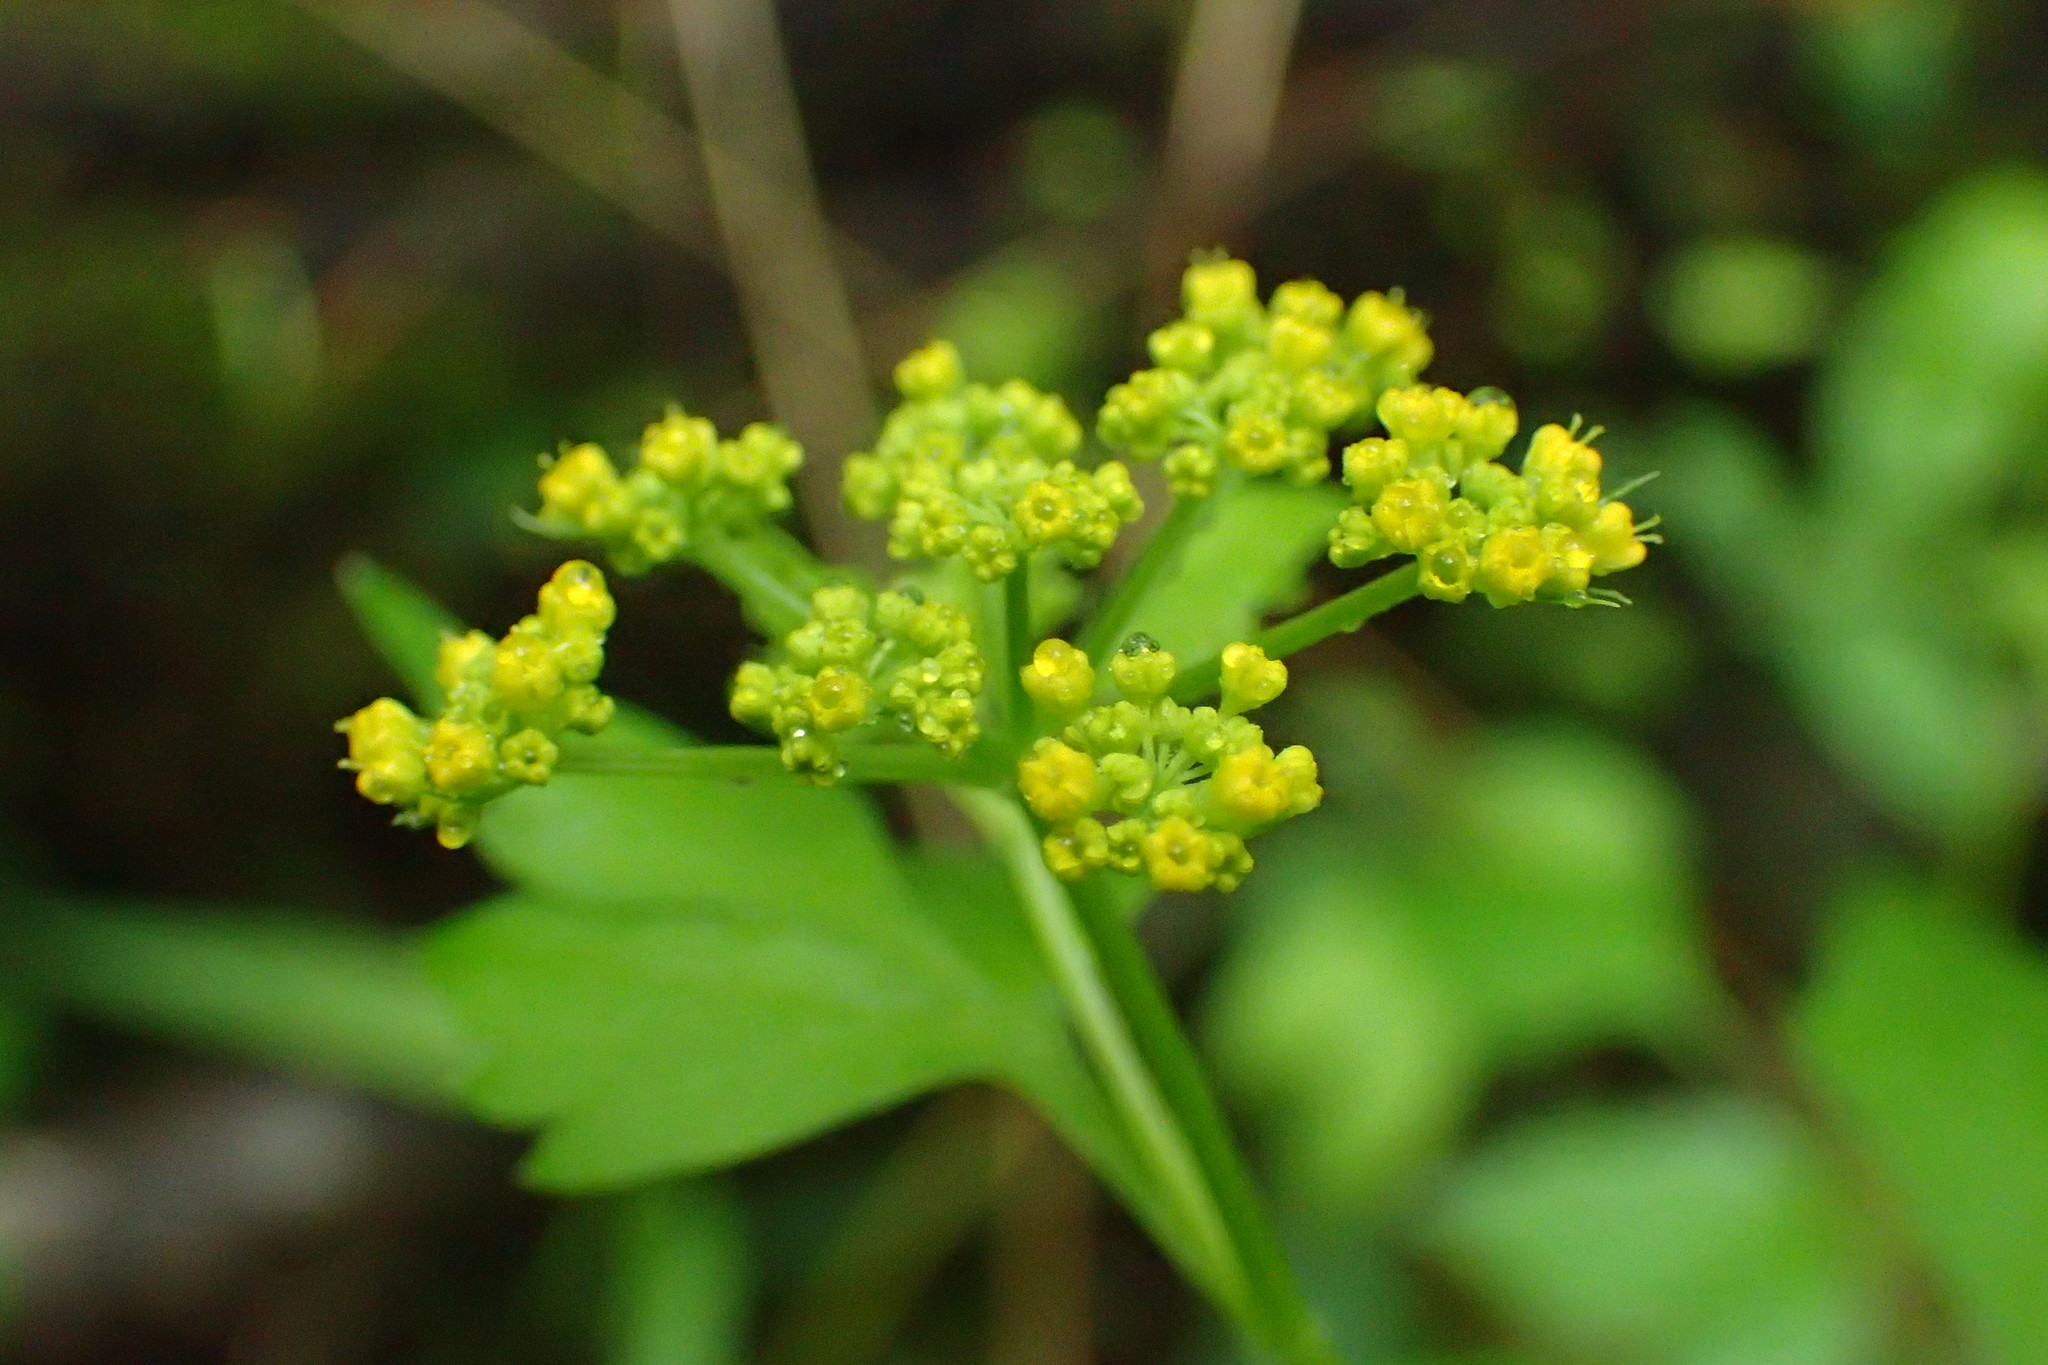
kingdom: Plantae
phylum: Tracheophyta
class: Magnoliopsida
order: Apiales
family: Apiaceae
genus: Thaspium
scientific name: Thaspium barbinode
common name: Bearded meadow-parsnip
